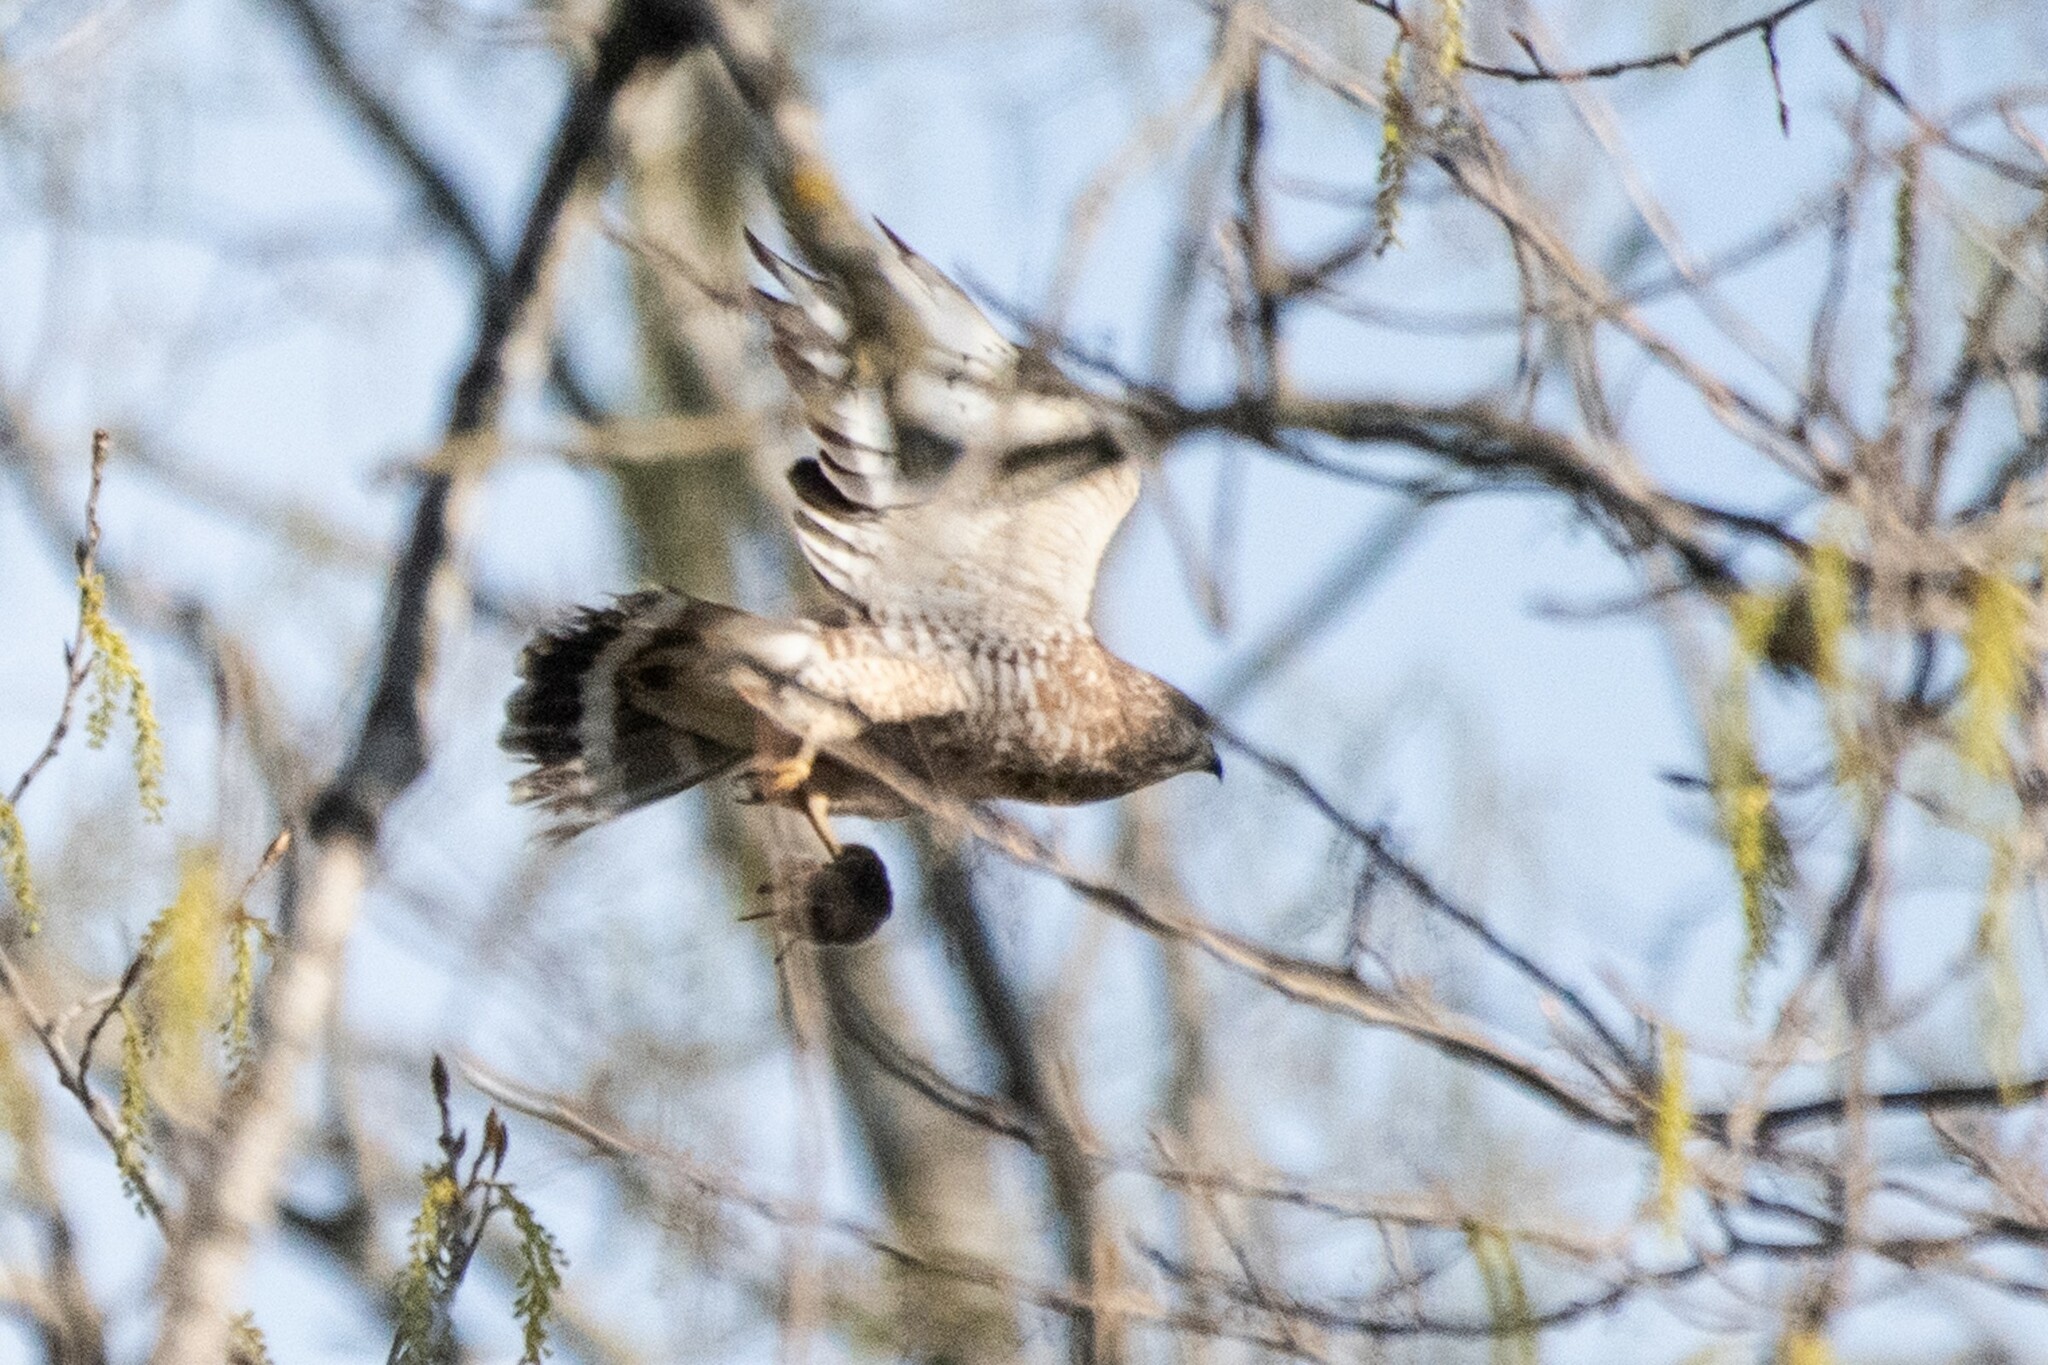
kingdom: Animalia
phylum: Chordata
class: Aves
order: Accipitriformes
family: Accipitridae
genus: Buteo
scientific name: Buteo platypterus
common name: Broad-winged hawk
